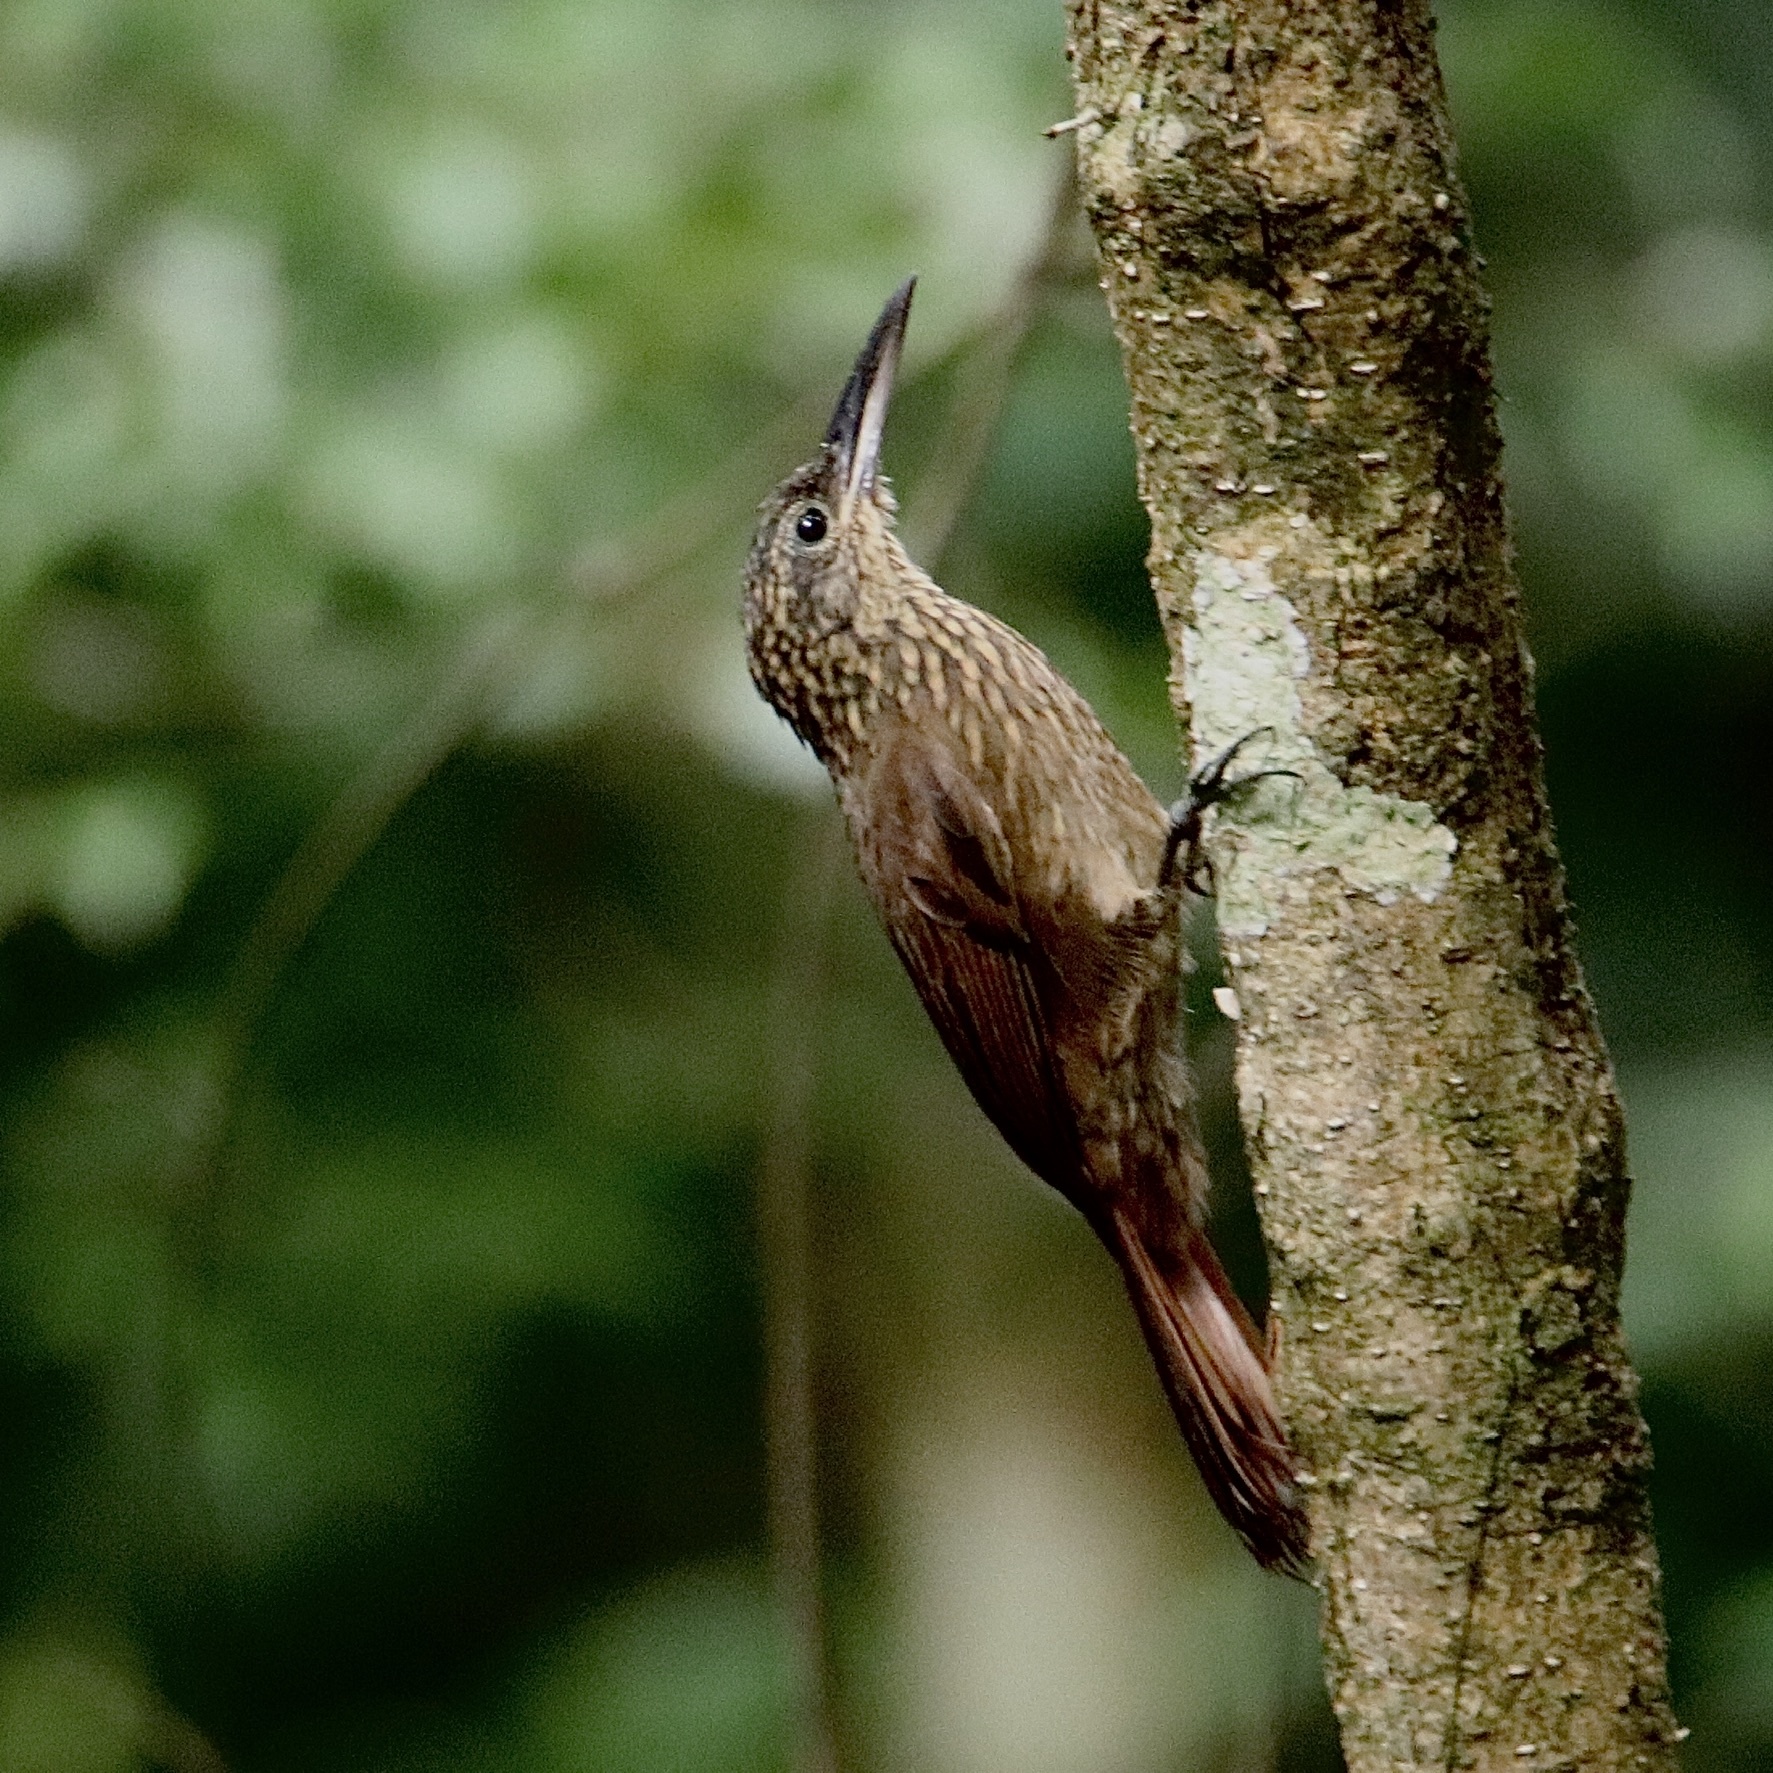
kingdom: Animalia
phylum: Chordata
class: Aves
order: Passeriformes
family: Furnariidae
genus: Xiphorhynchus
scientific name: Xiphorhynchus susurrans
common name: Cocoa woodcreeper
